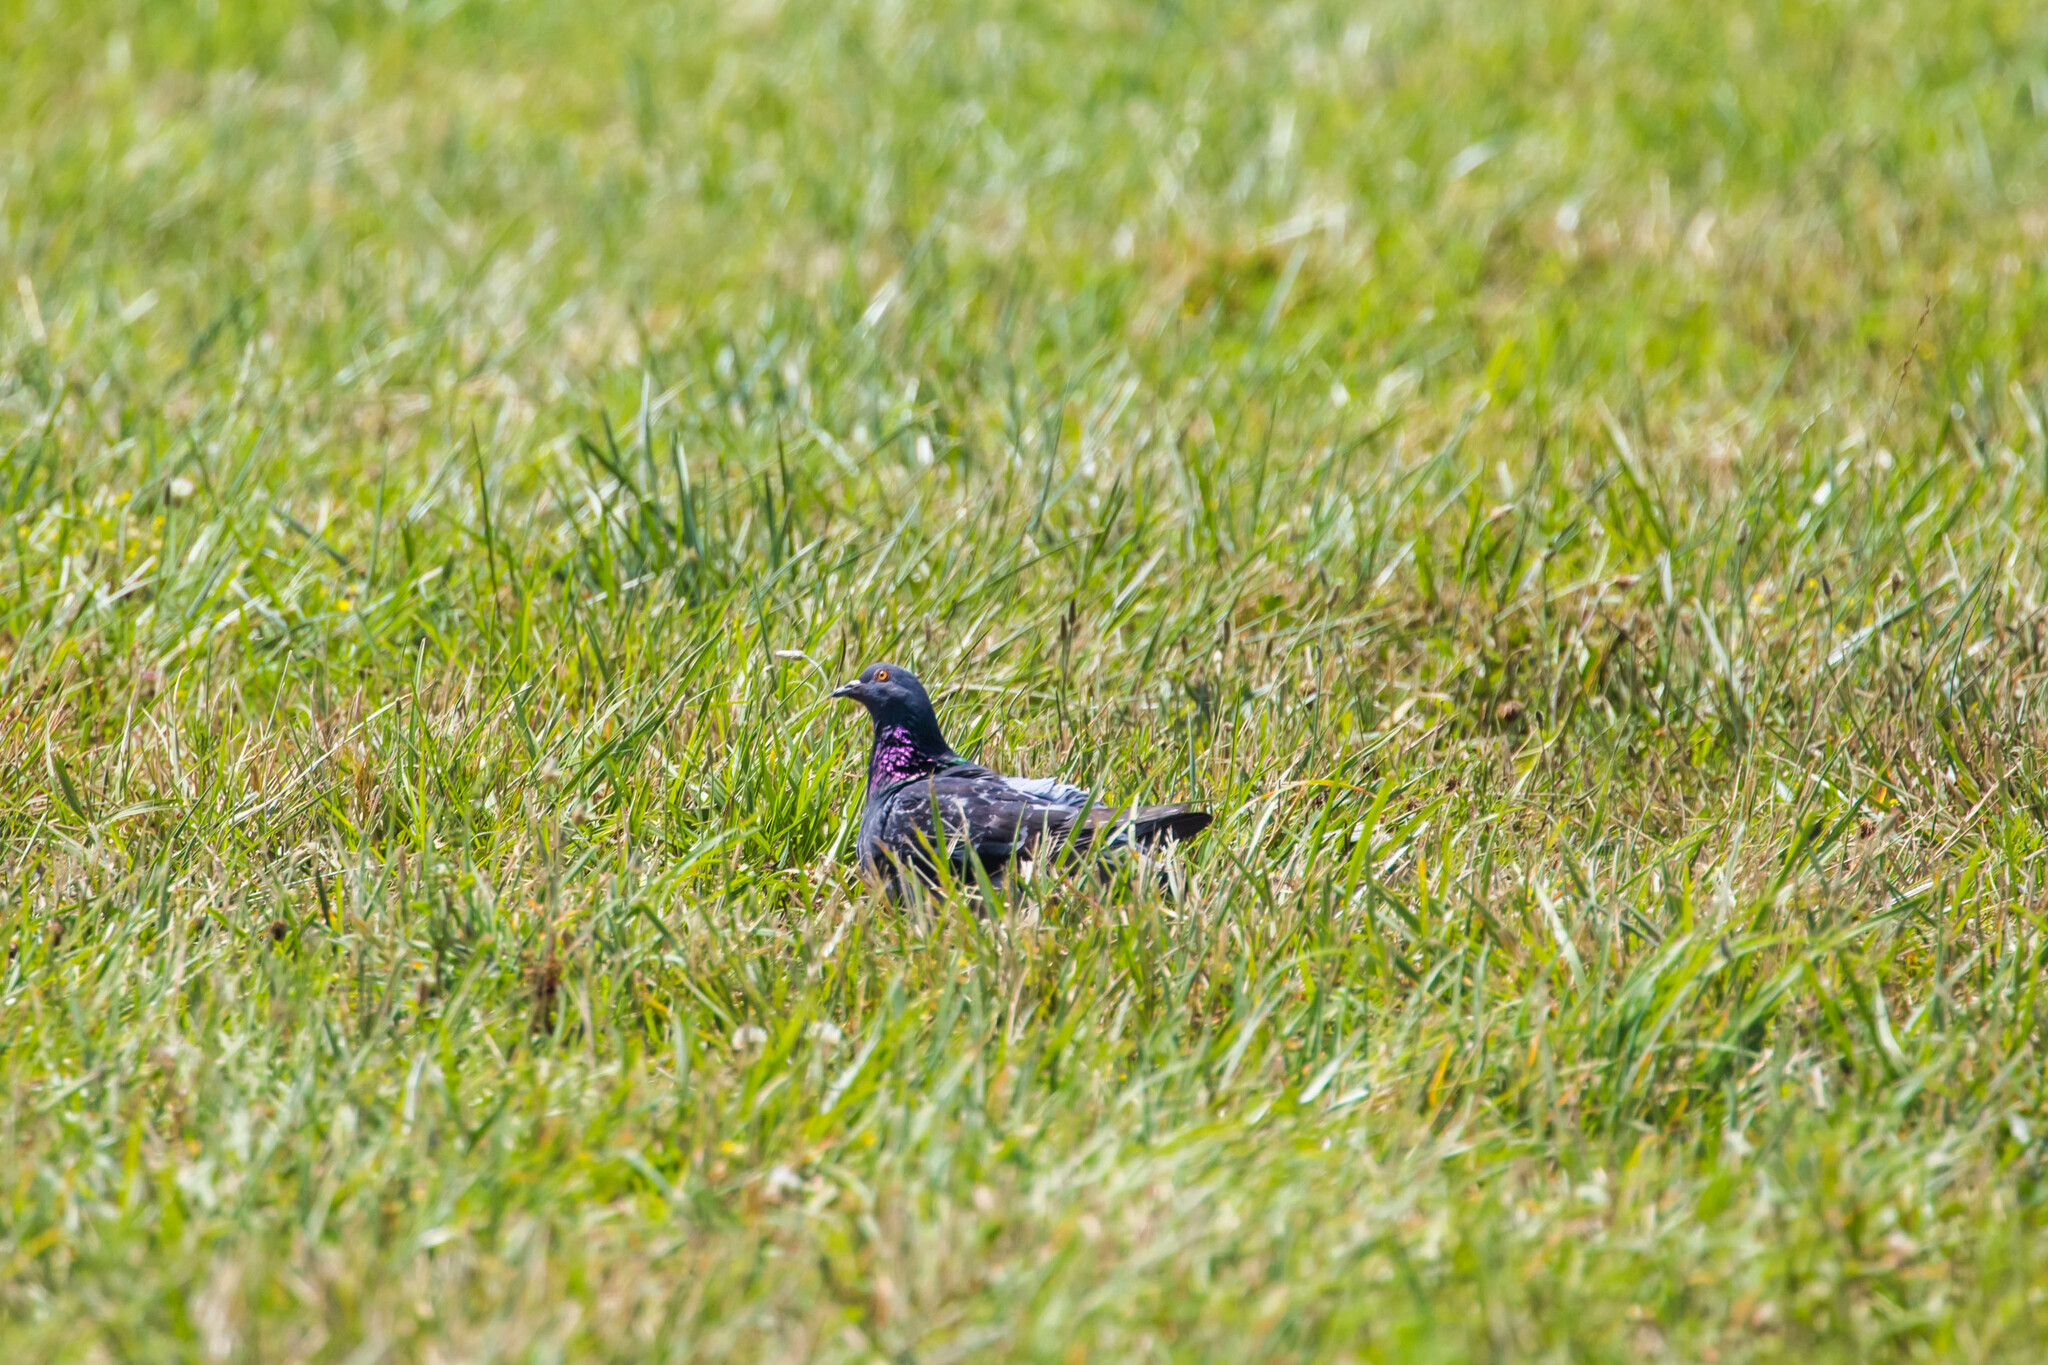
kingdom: Animalia
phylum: Chordata
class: Aves
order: Columbiformes
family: Columbidae
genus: Columba
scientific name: Columba livia
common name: Rock pigeon
